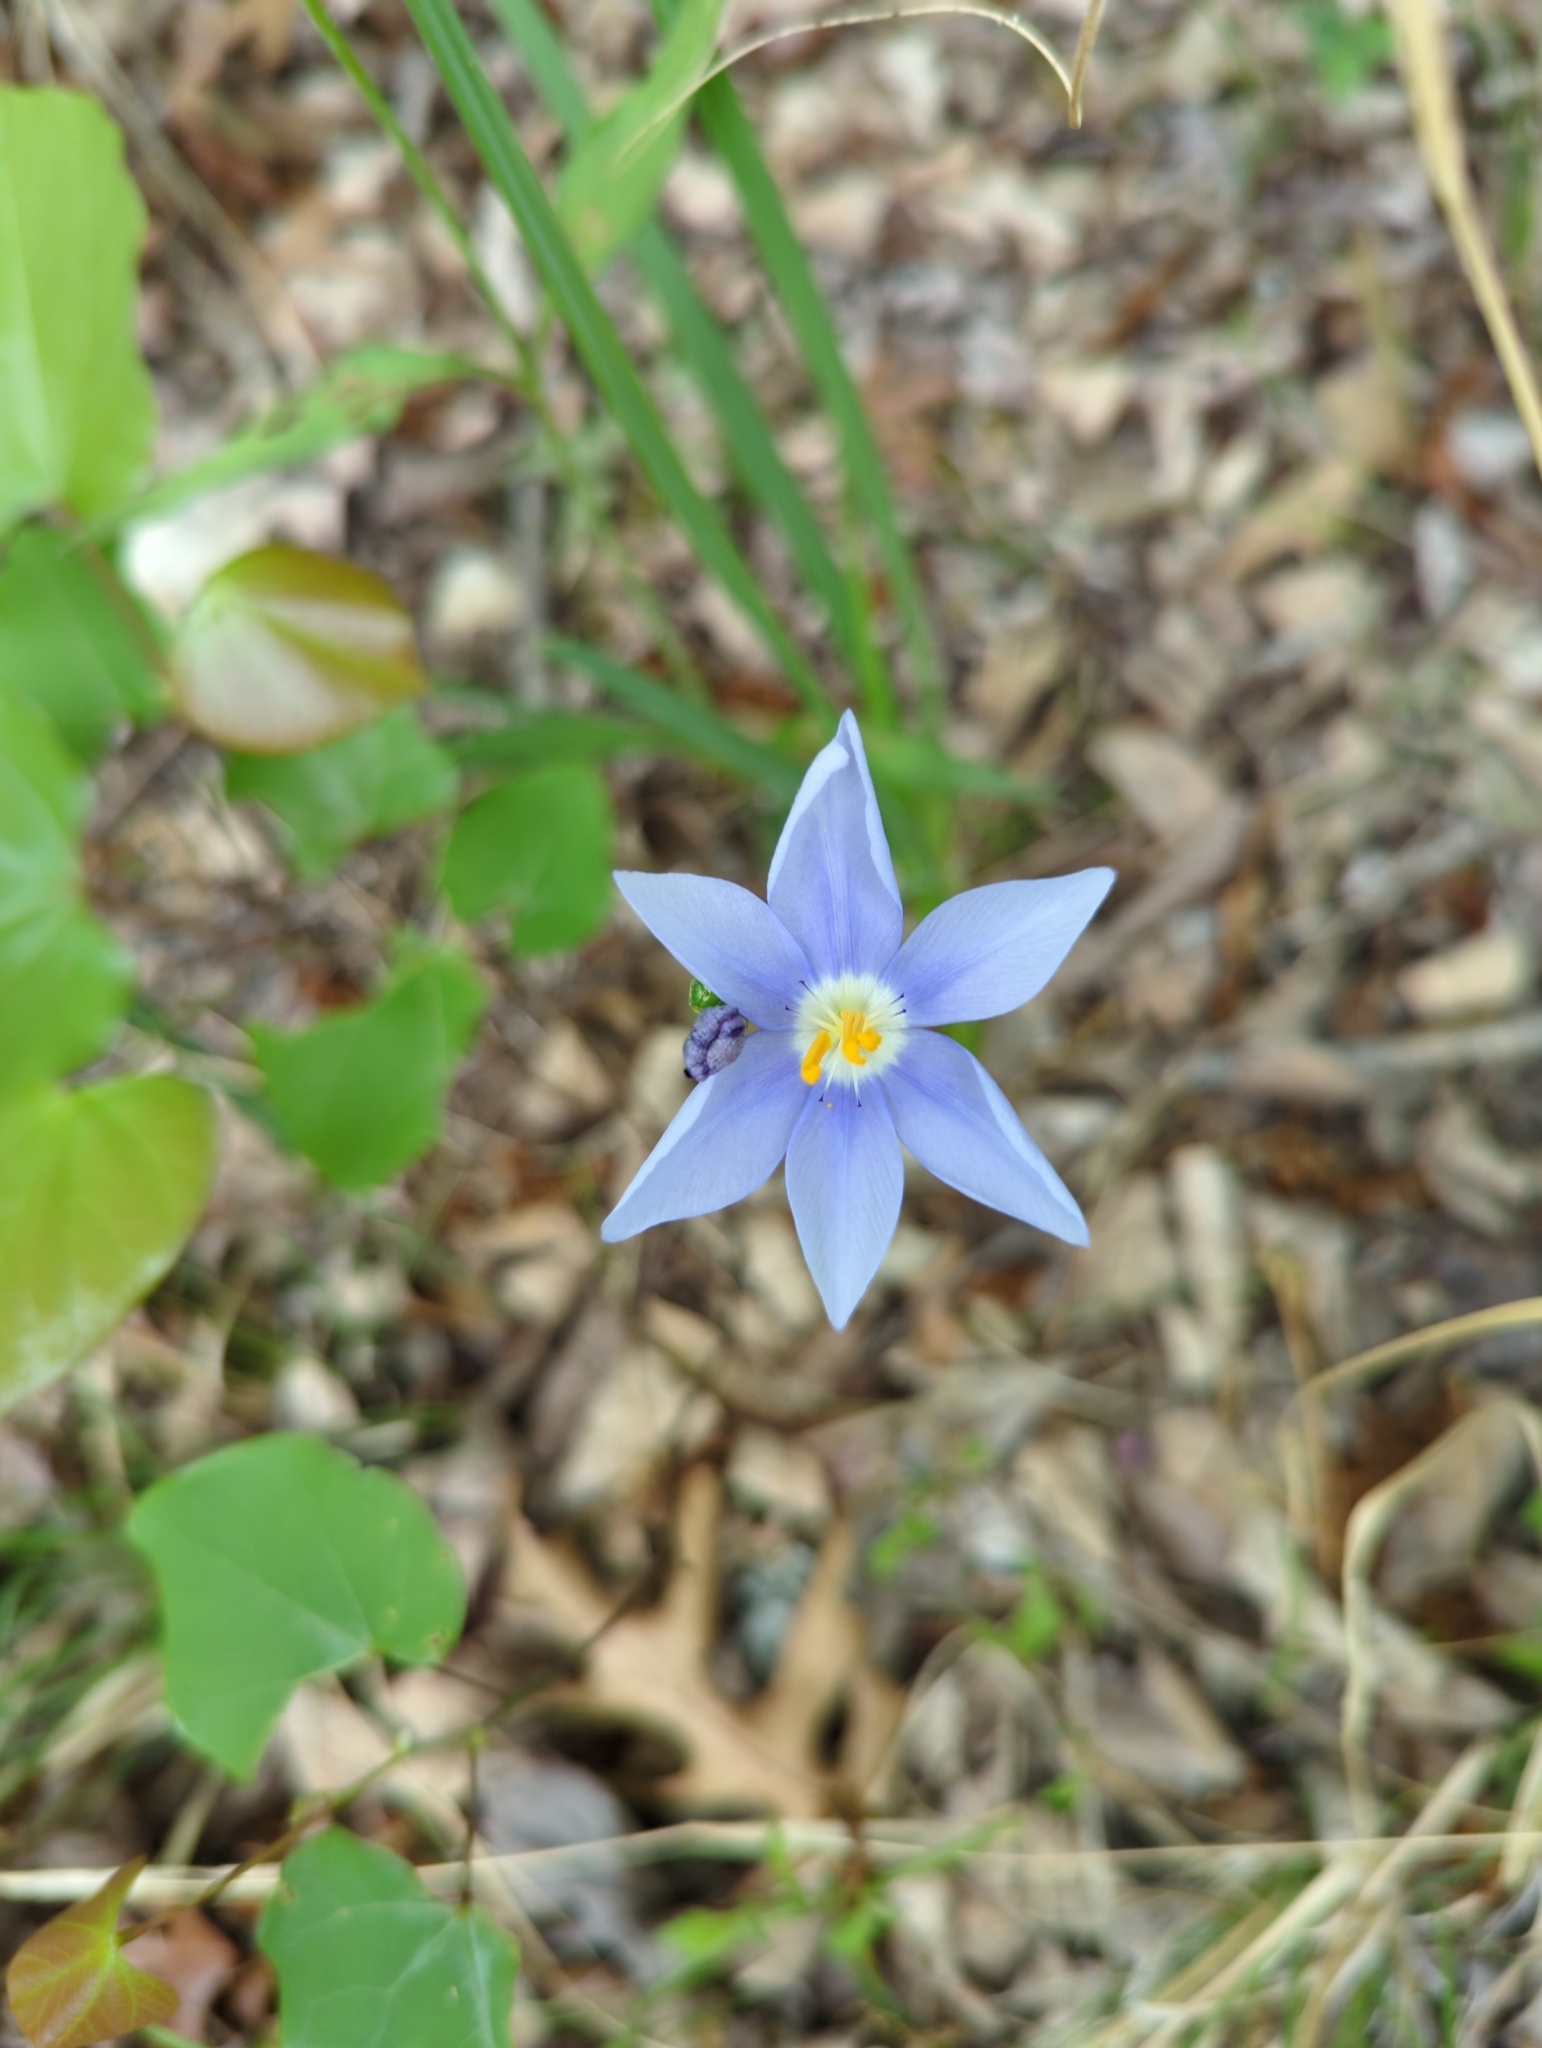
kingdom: Plantae
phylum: Tracheophyta
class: Liliopsida
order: Asparagales
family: Iridaceae
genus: Nemastylis
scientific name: Nemastylis geminiflora
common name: Prairie celestial
